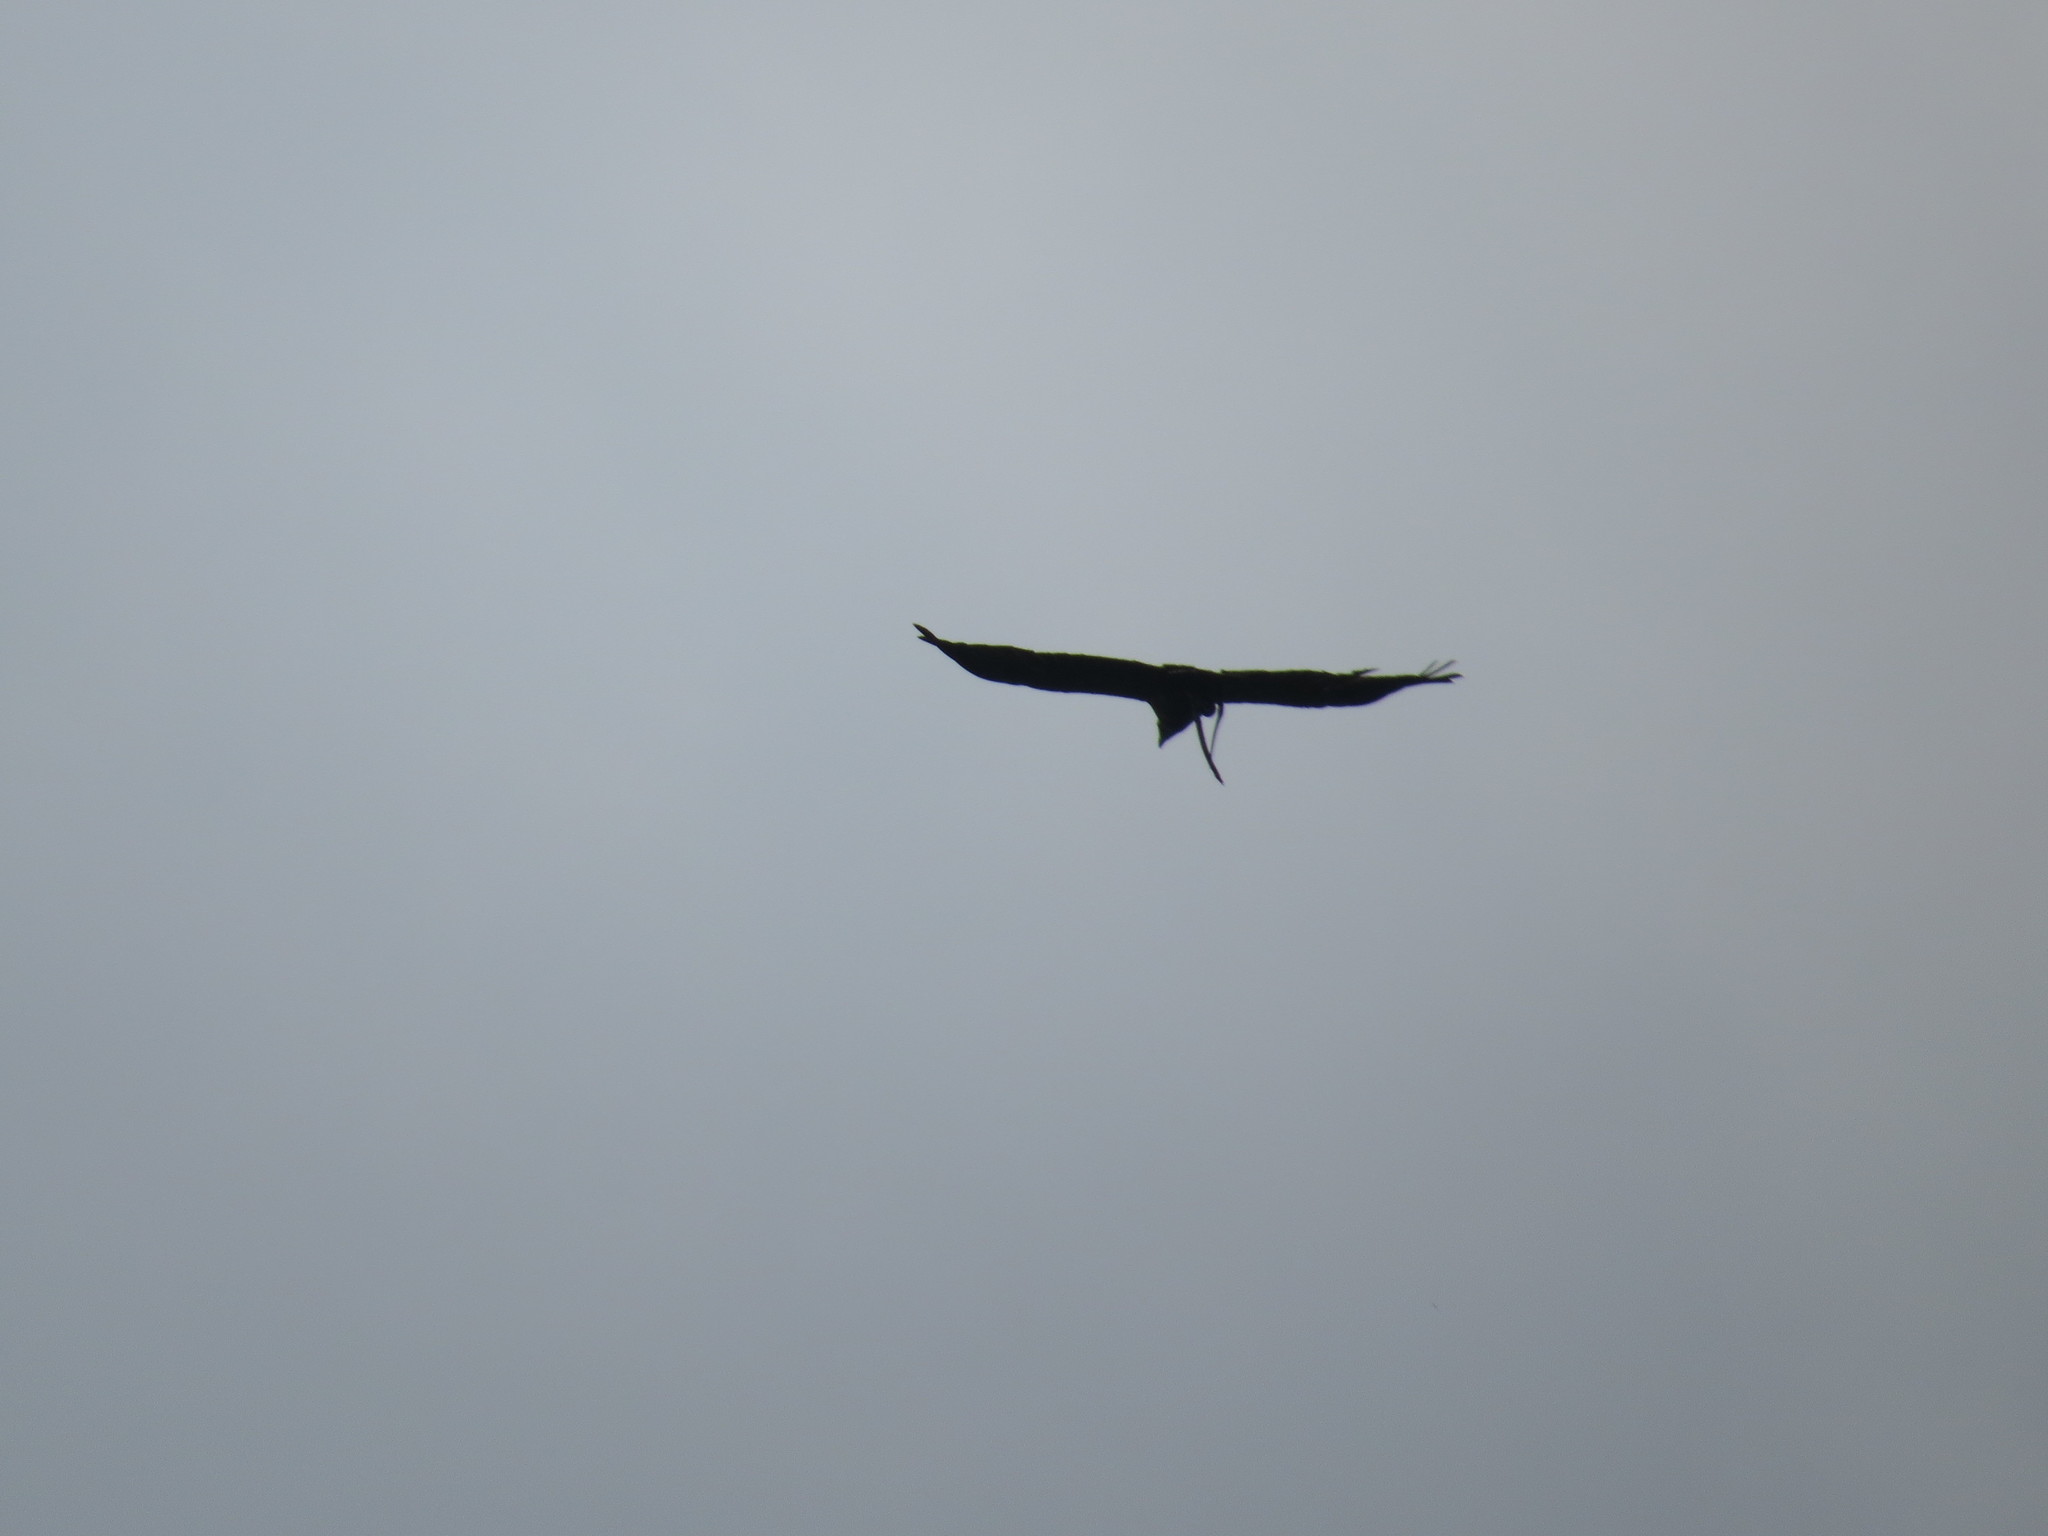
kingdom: Animalia
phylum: Chordata
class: Aves
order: Accipitriformes
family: Accipitridae
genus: Harpyhaliaetus
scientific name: Harpyhaliaetus coronatus
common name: Crowned solitary eagle
